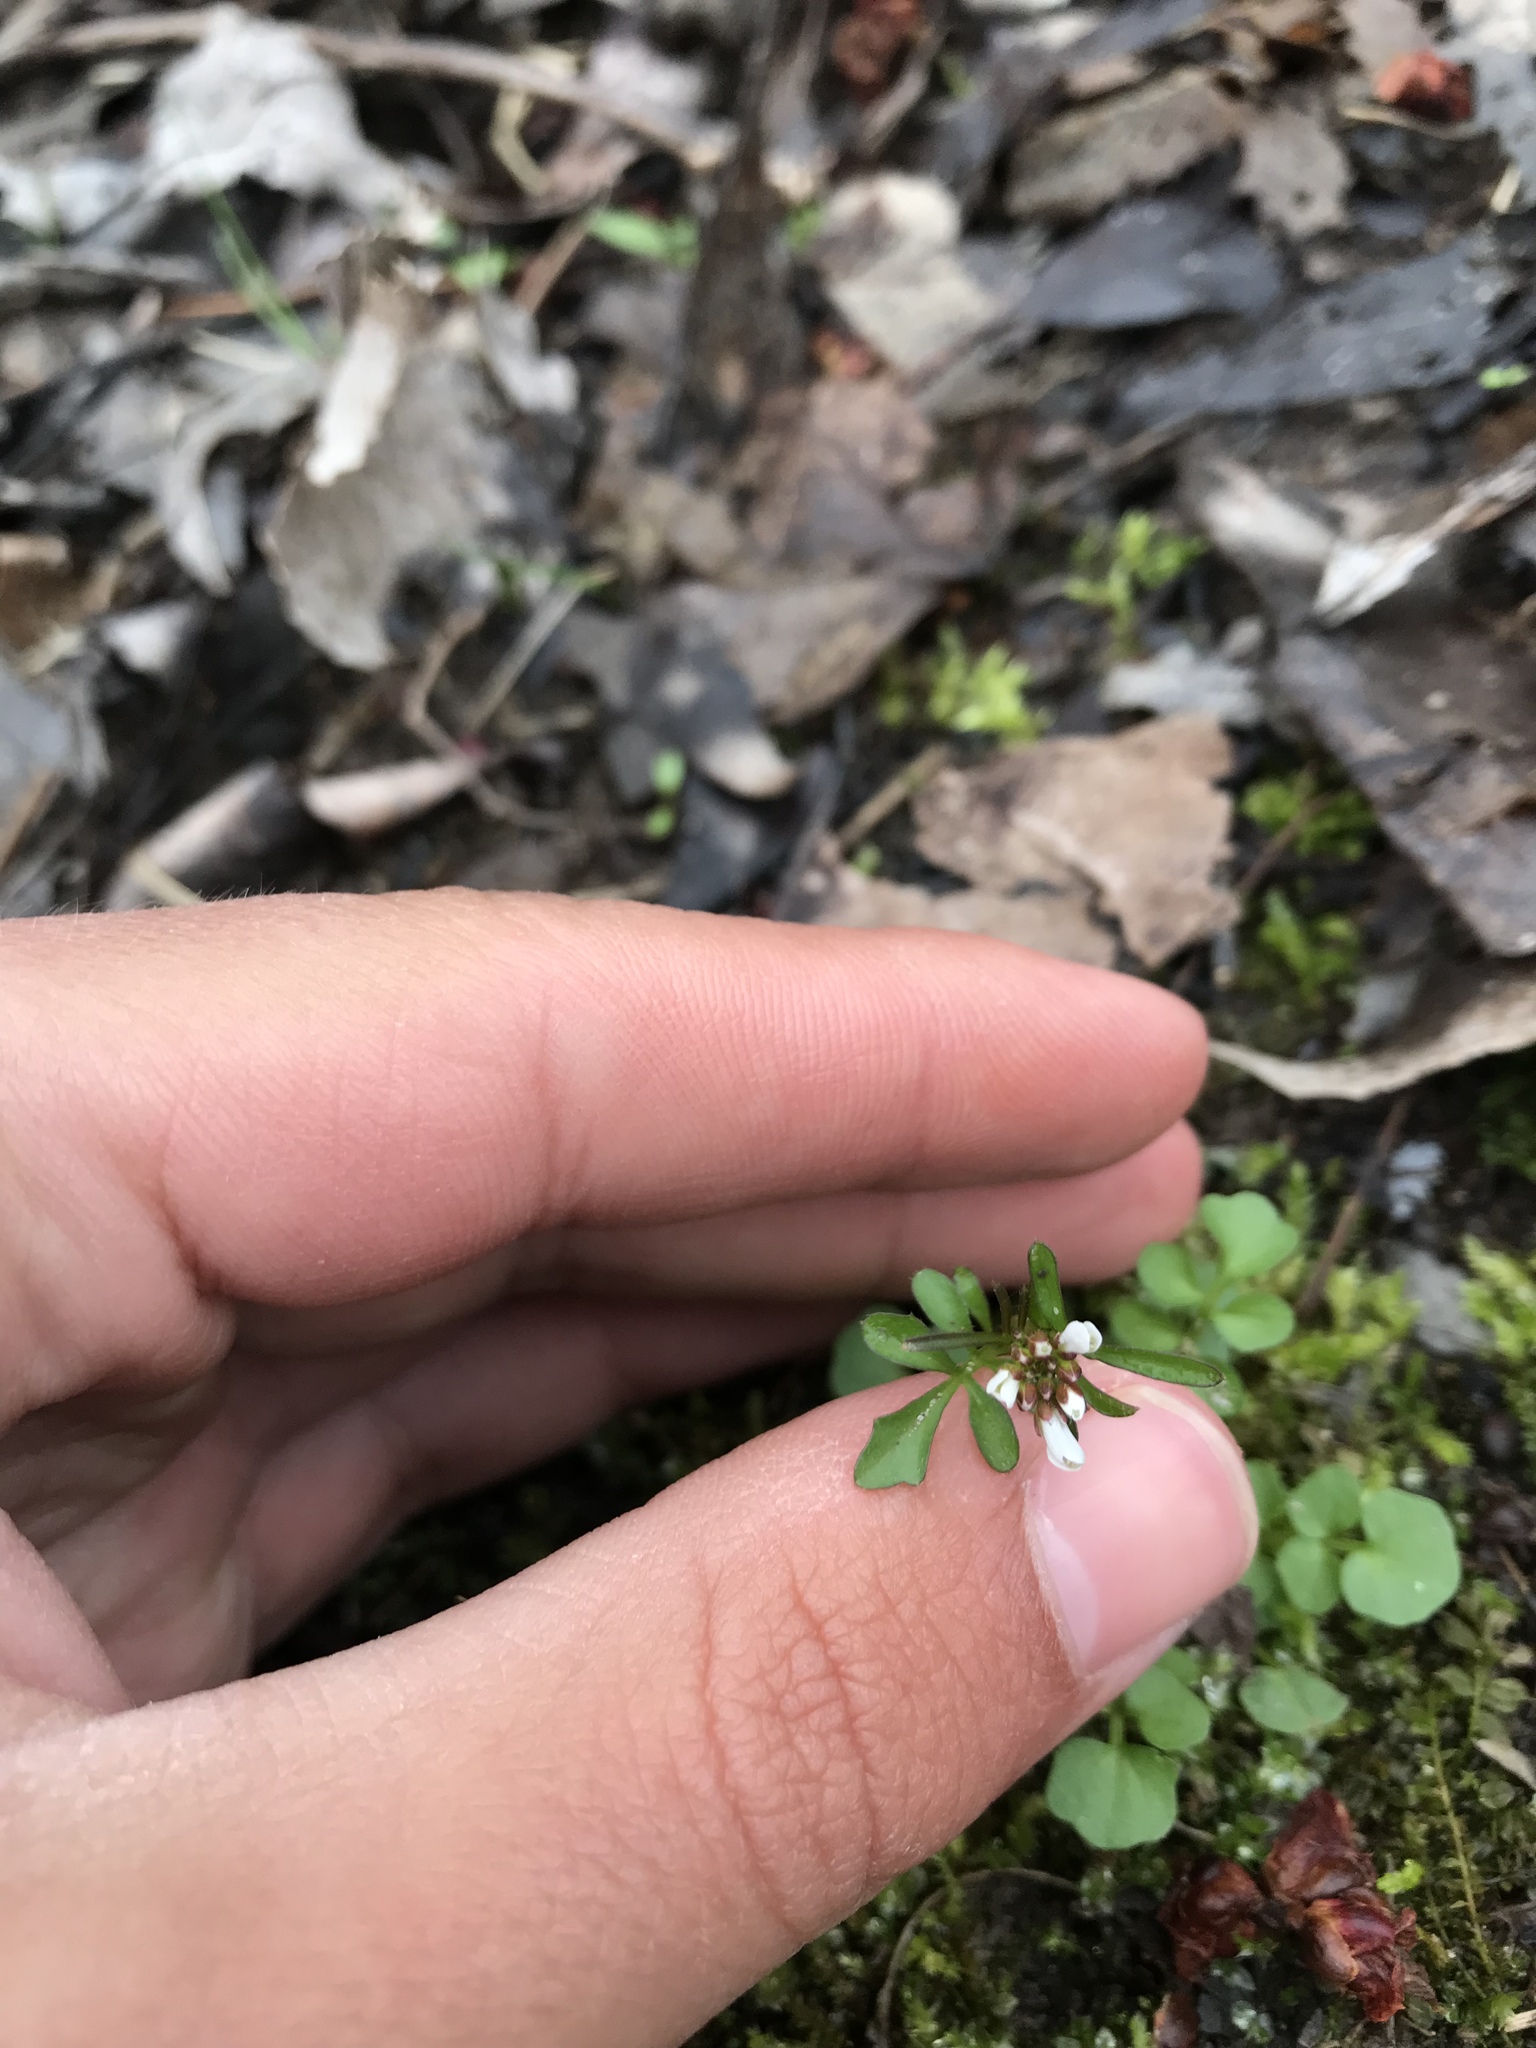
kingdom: Plantae
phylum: Tracheophyta
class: Magnoliopsida
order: Brassicales
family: Brassicaceae
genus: Cardamine
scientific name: Cardamine hirsuta
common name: Hairy bittercress
